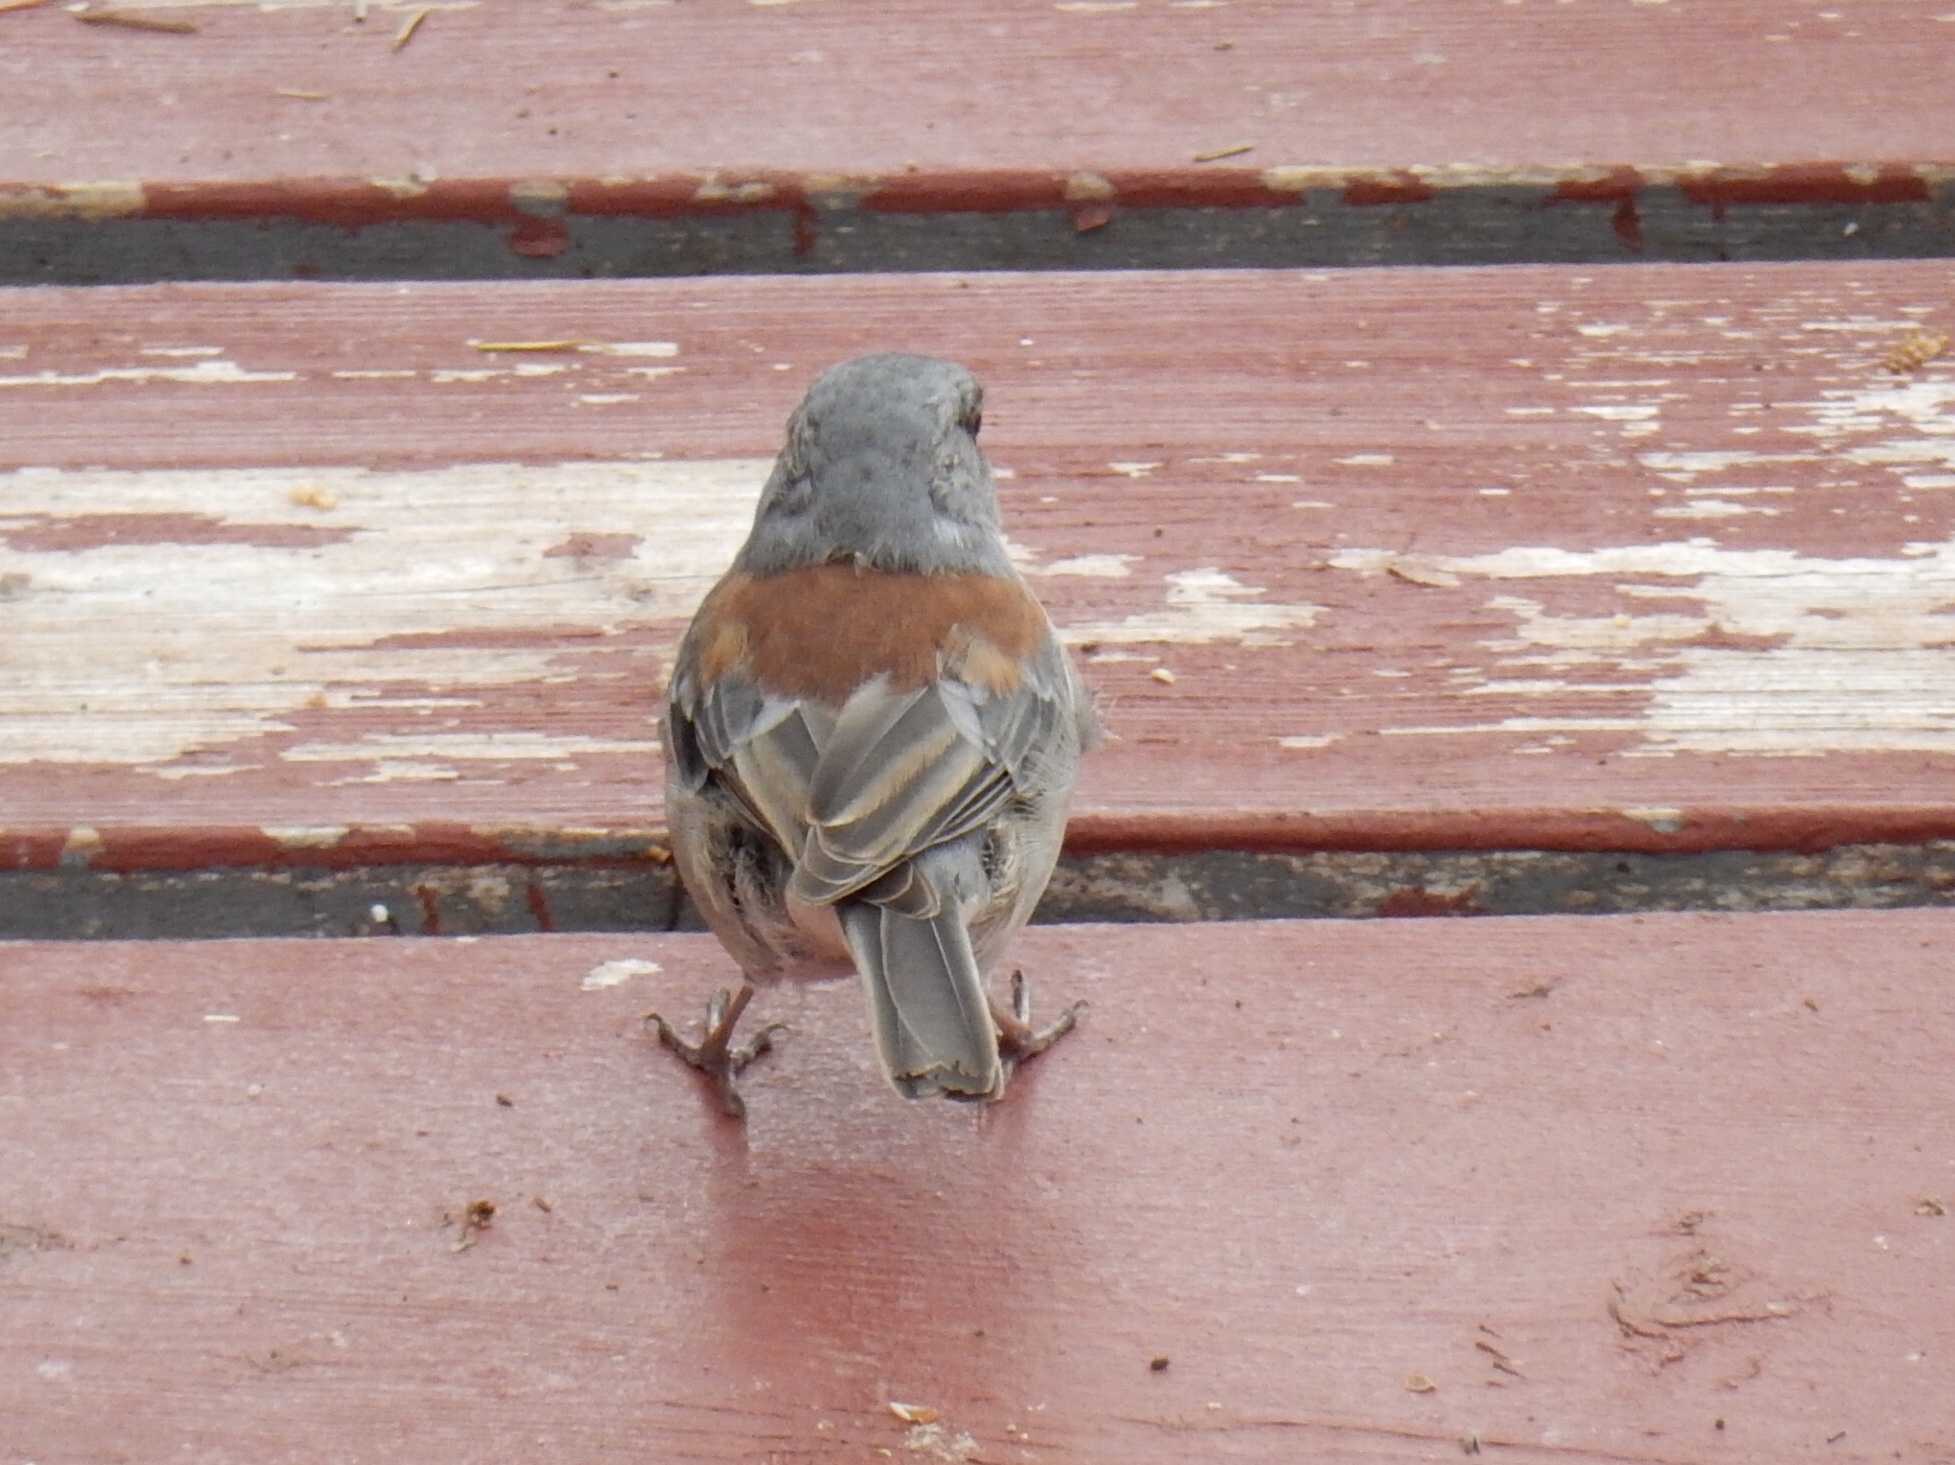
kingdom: Animalia
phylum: Chordata
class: Aves
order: Passeriformes
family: Passerellidae
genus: Junco
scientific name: Junco hyemalis
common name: Dark-eyed junco
